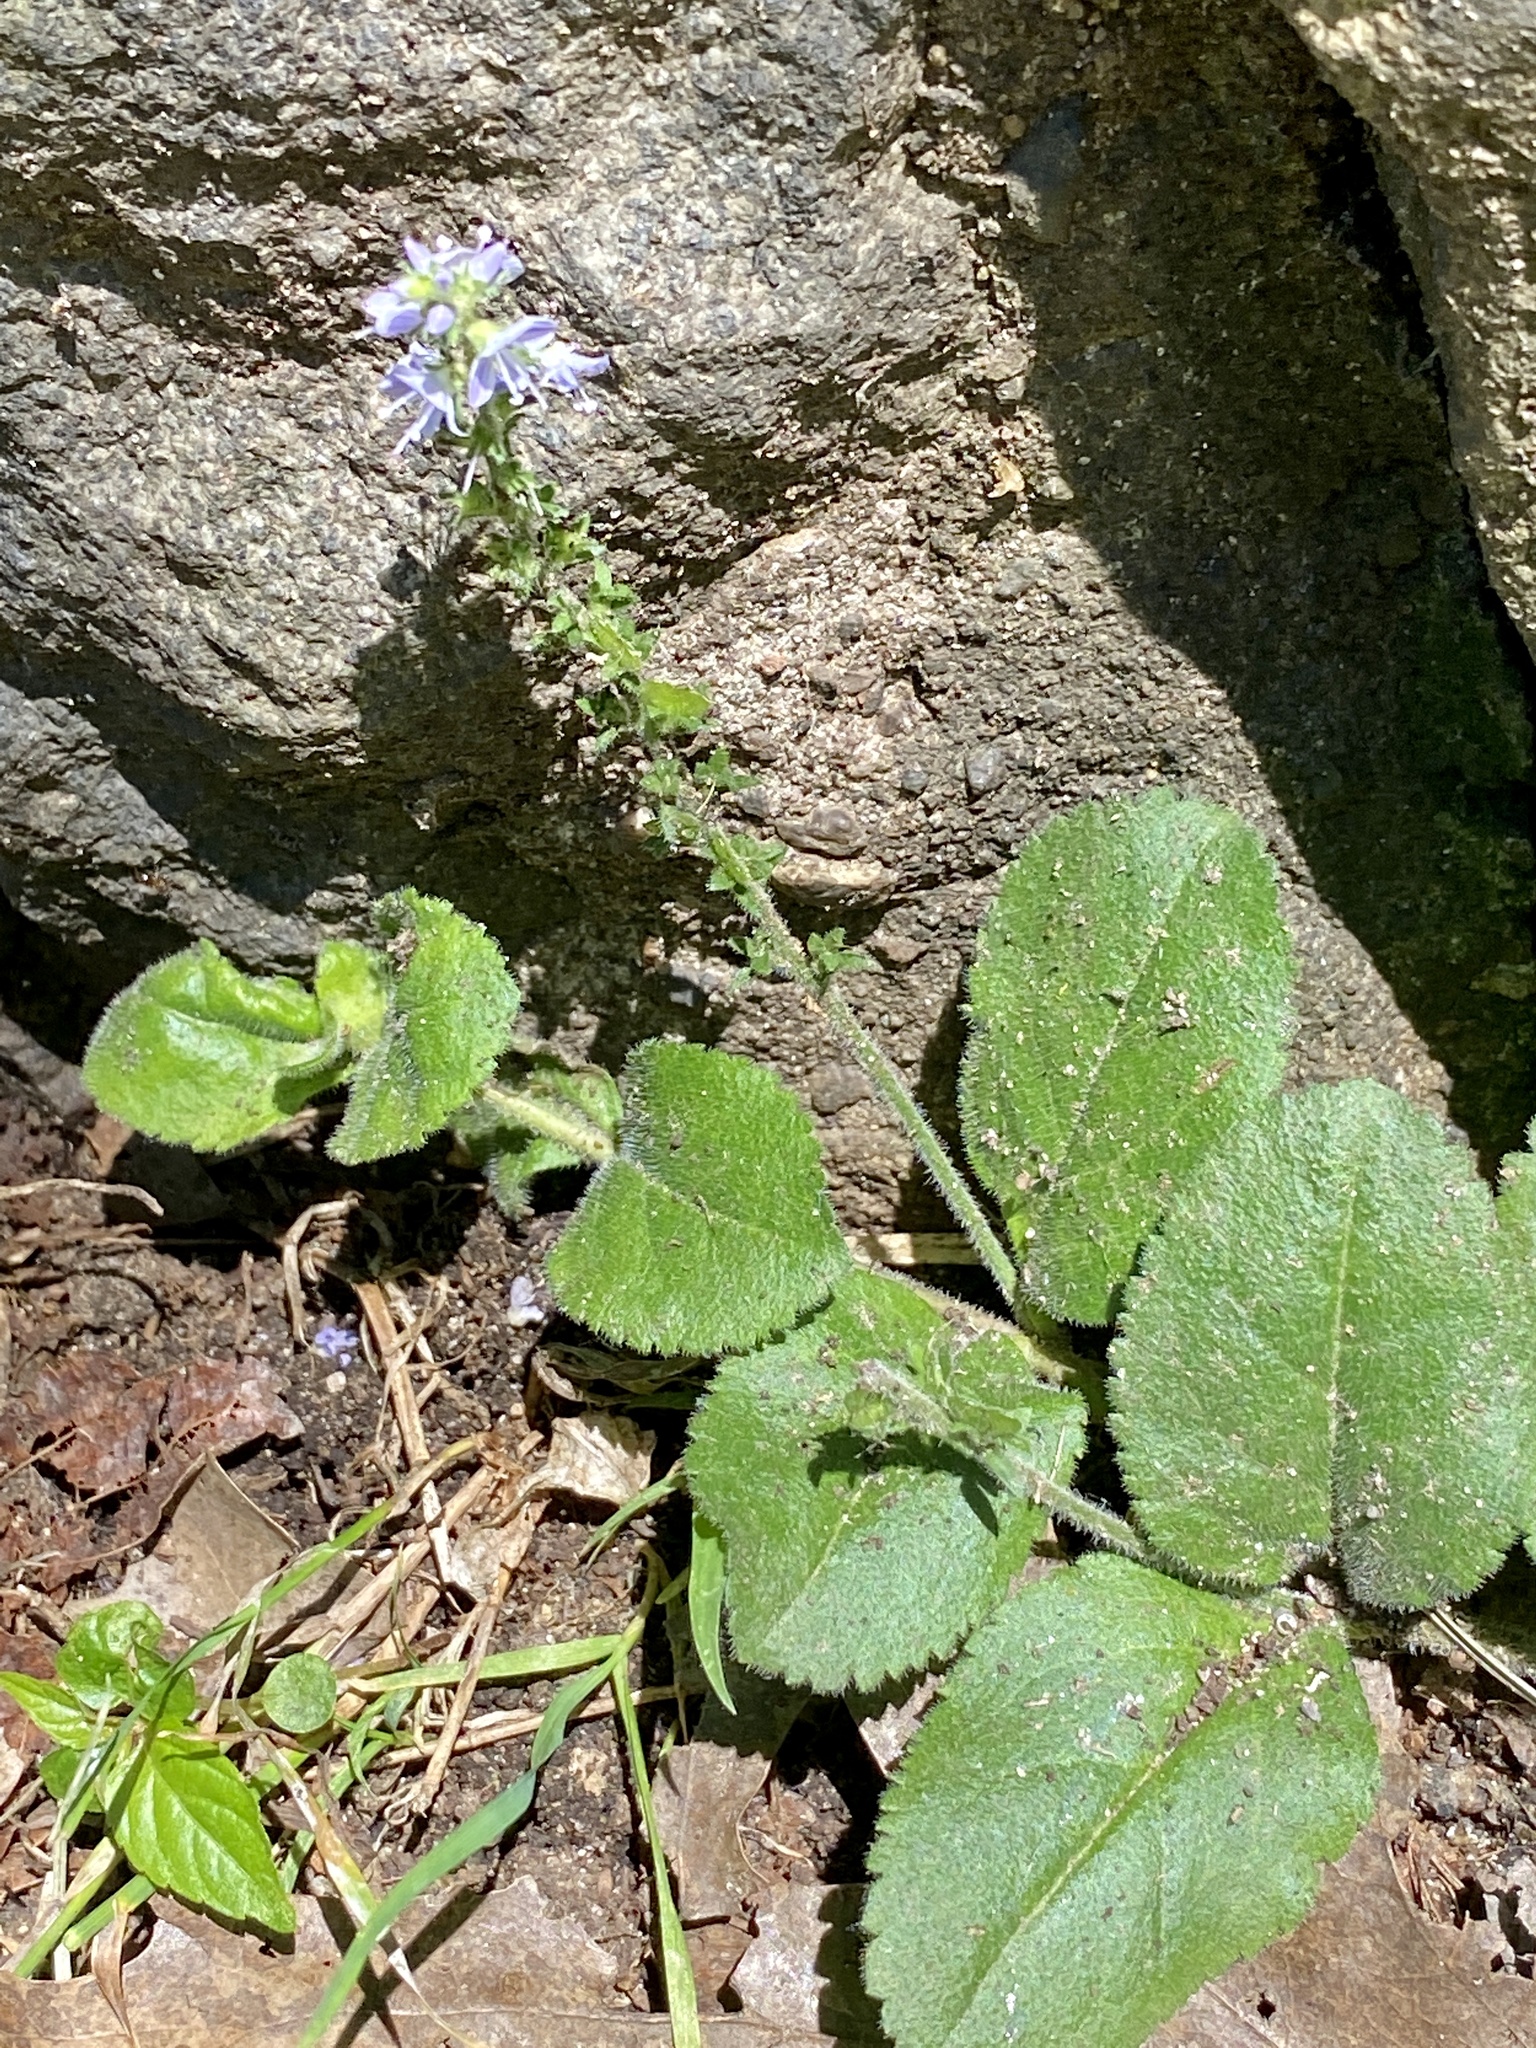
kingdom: Plantae
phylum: Tracheophyta
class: Magnoliopsida
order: Lamiales
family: Plantaginaceae
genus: Veronica
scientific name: Veronica officinalis
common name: Common speedwell
